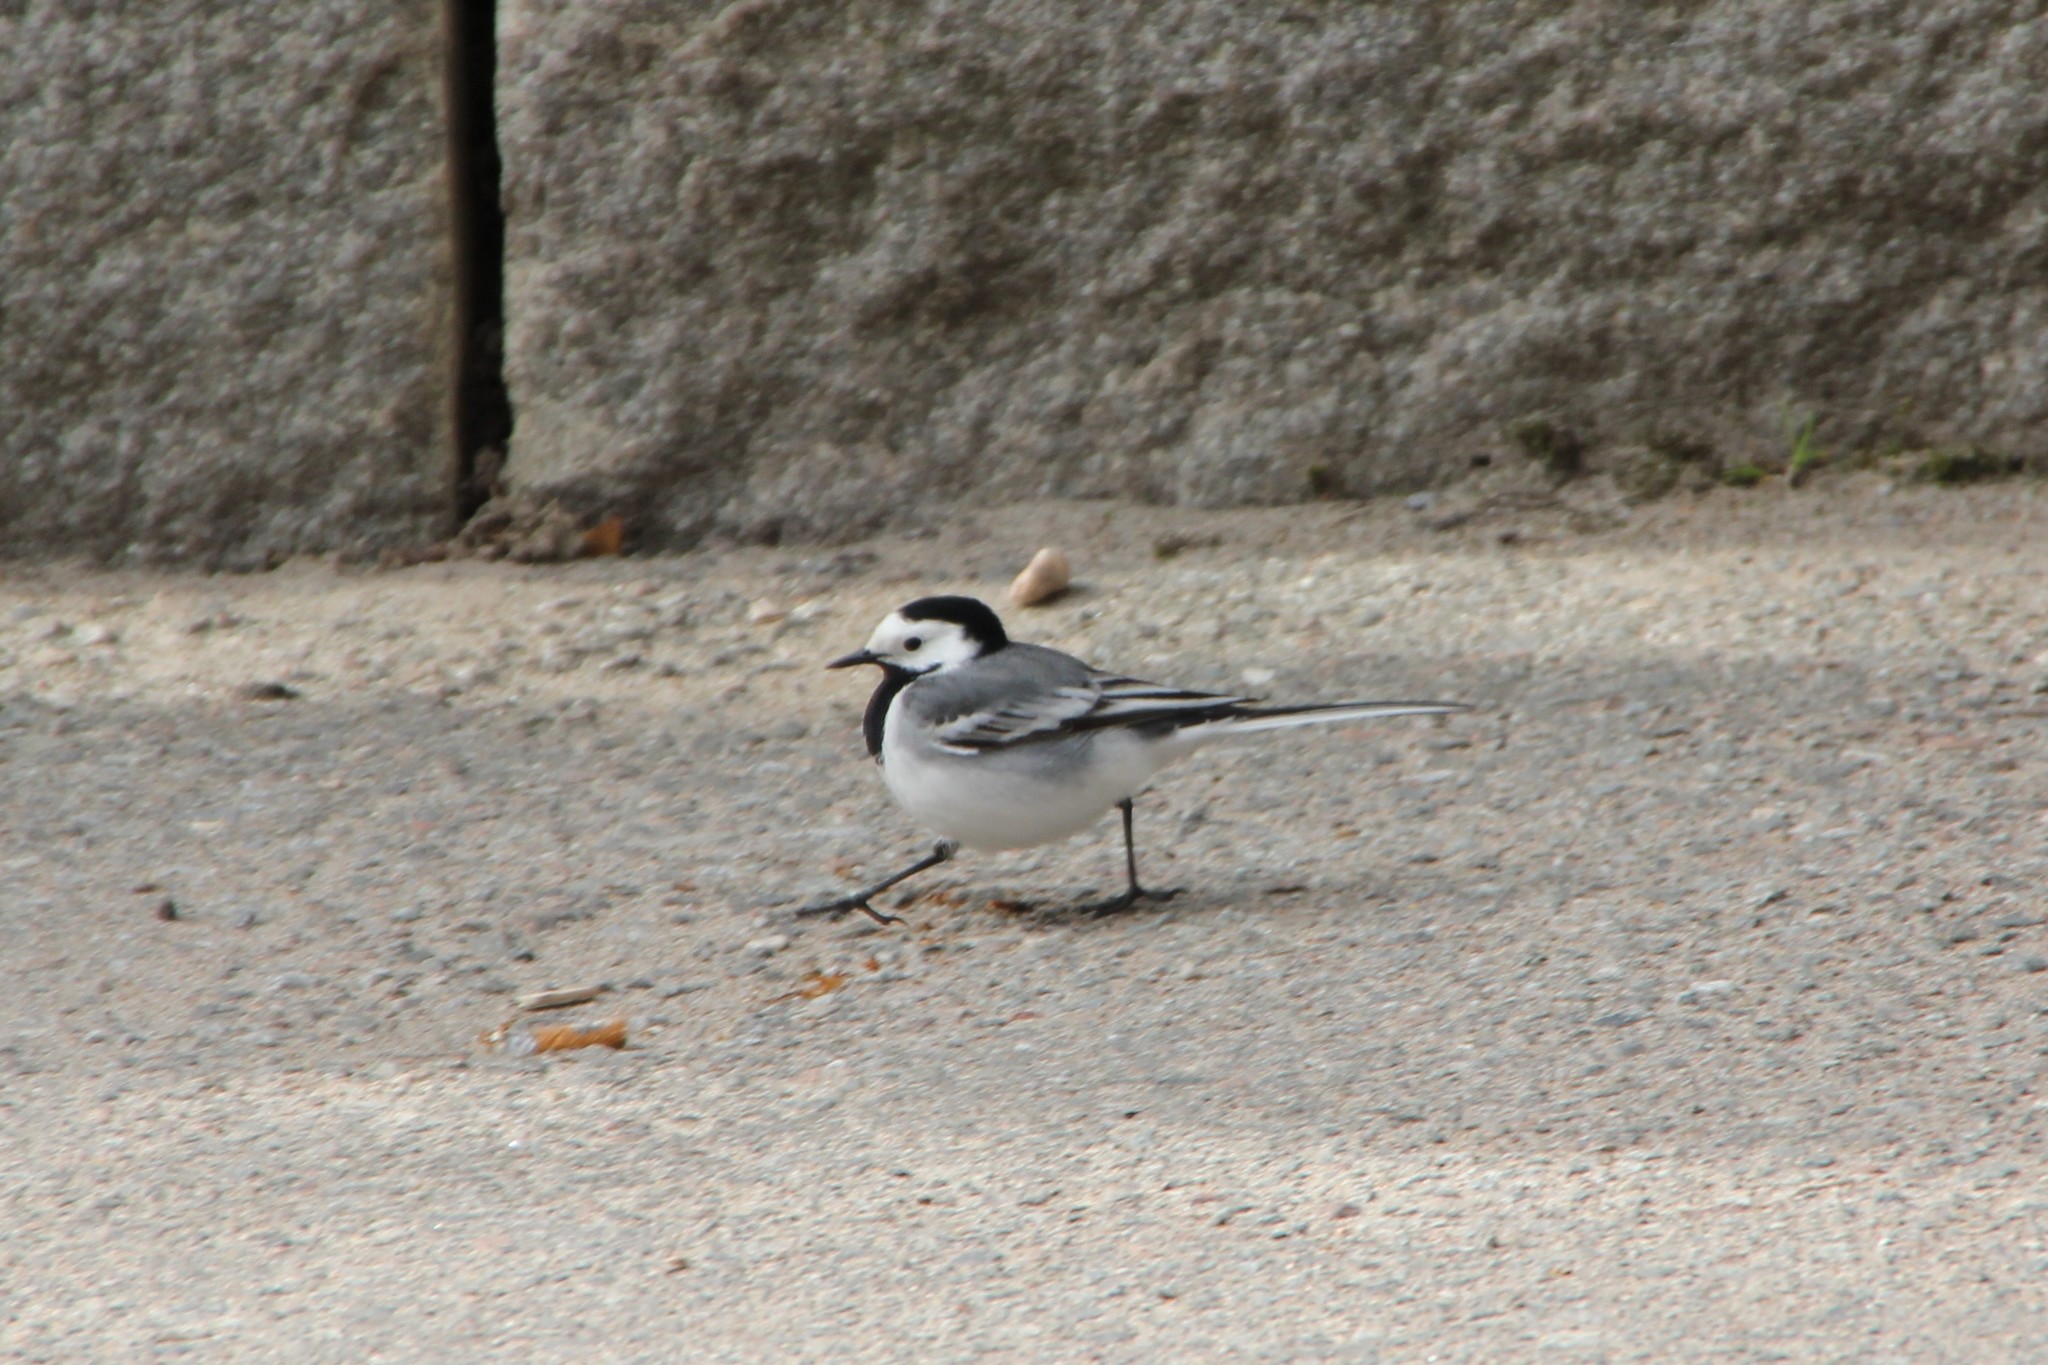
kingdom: Animalia
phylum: Chordata
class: Aves
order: Passeriformes
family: Motacillidae
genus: Motacilla
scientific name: Motacilla alba
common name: White wagtail
